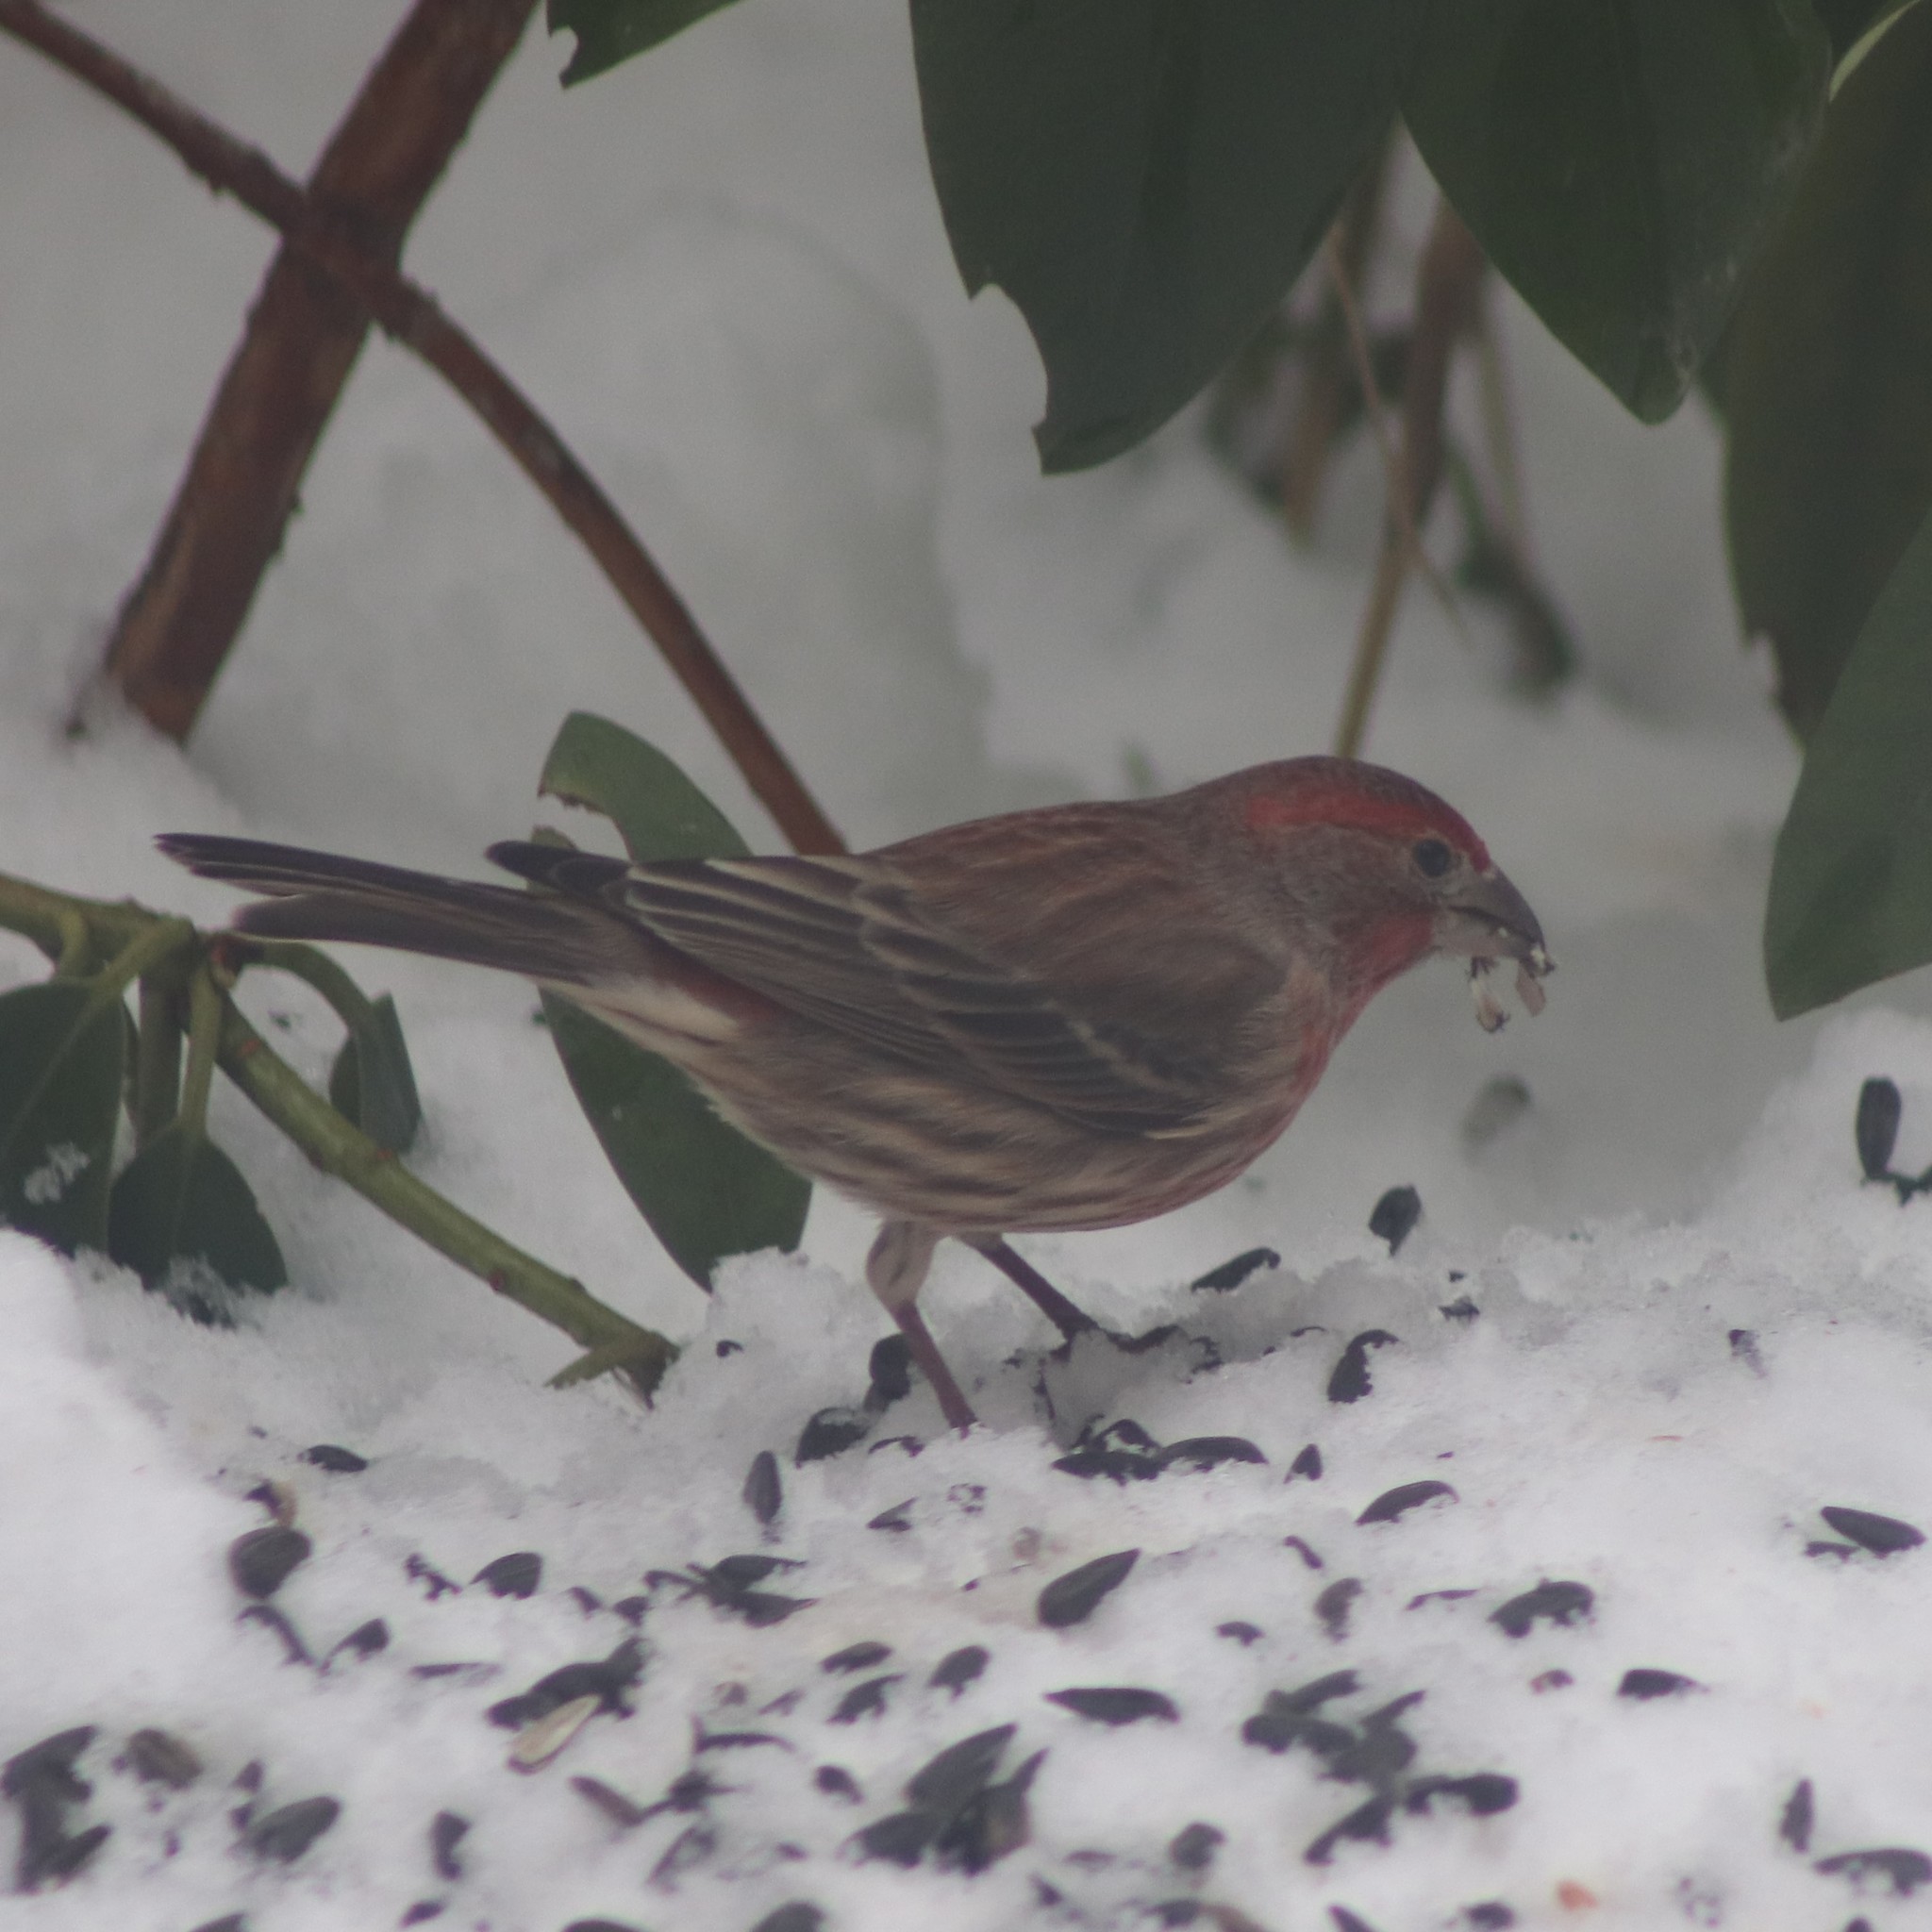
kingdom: Animalia
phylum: Chordata
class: Aves
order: Passeriformes
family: Fringillidae
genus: Haemorhous
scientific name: Haemorhous mexicanus
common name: House finch
